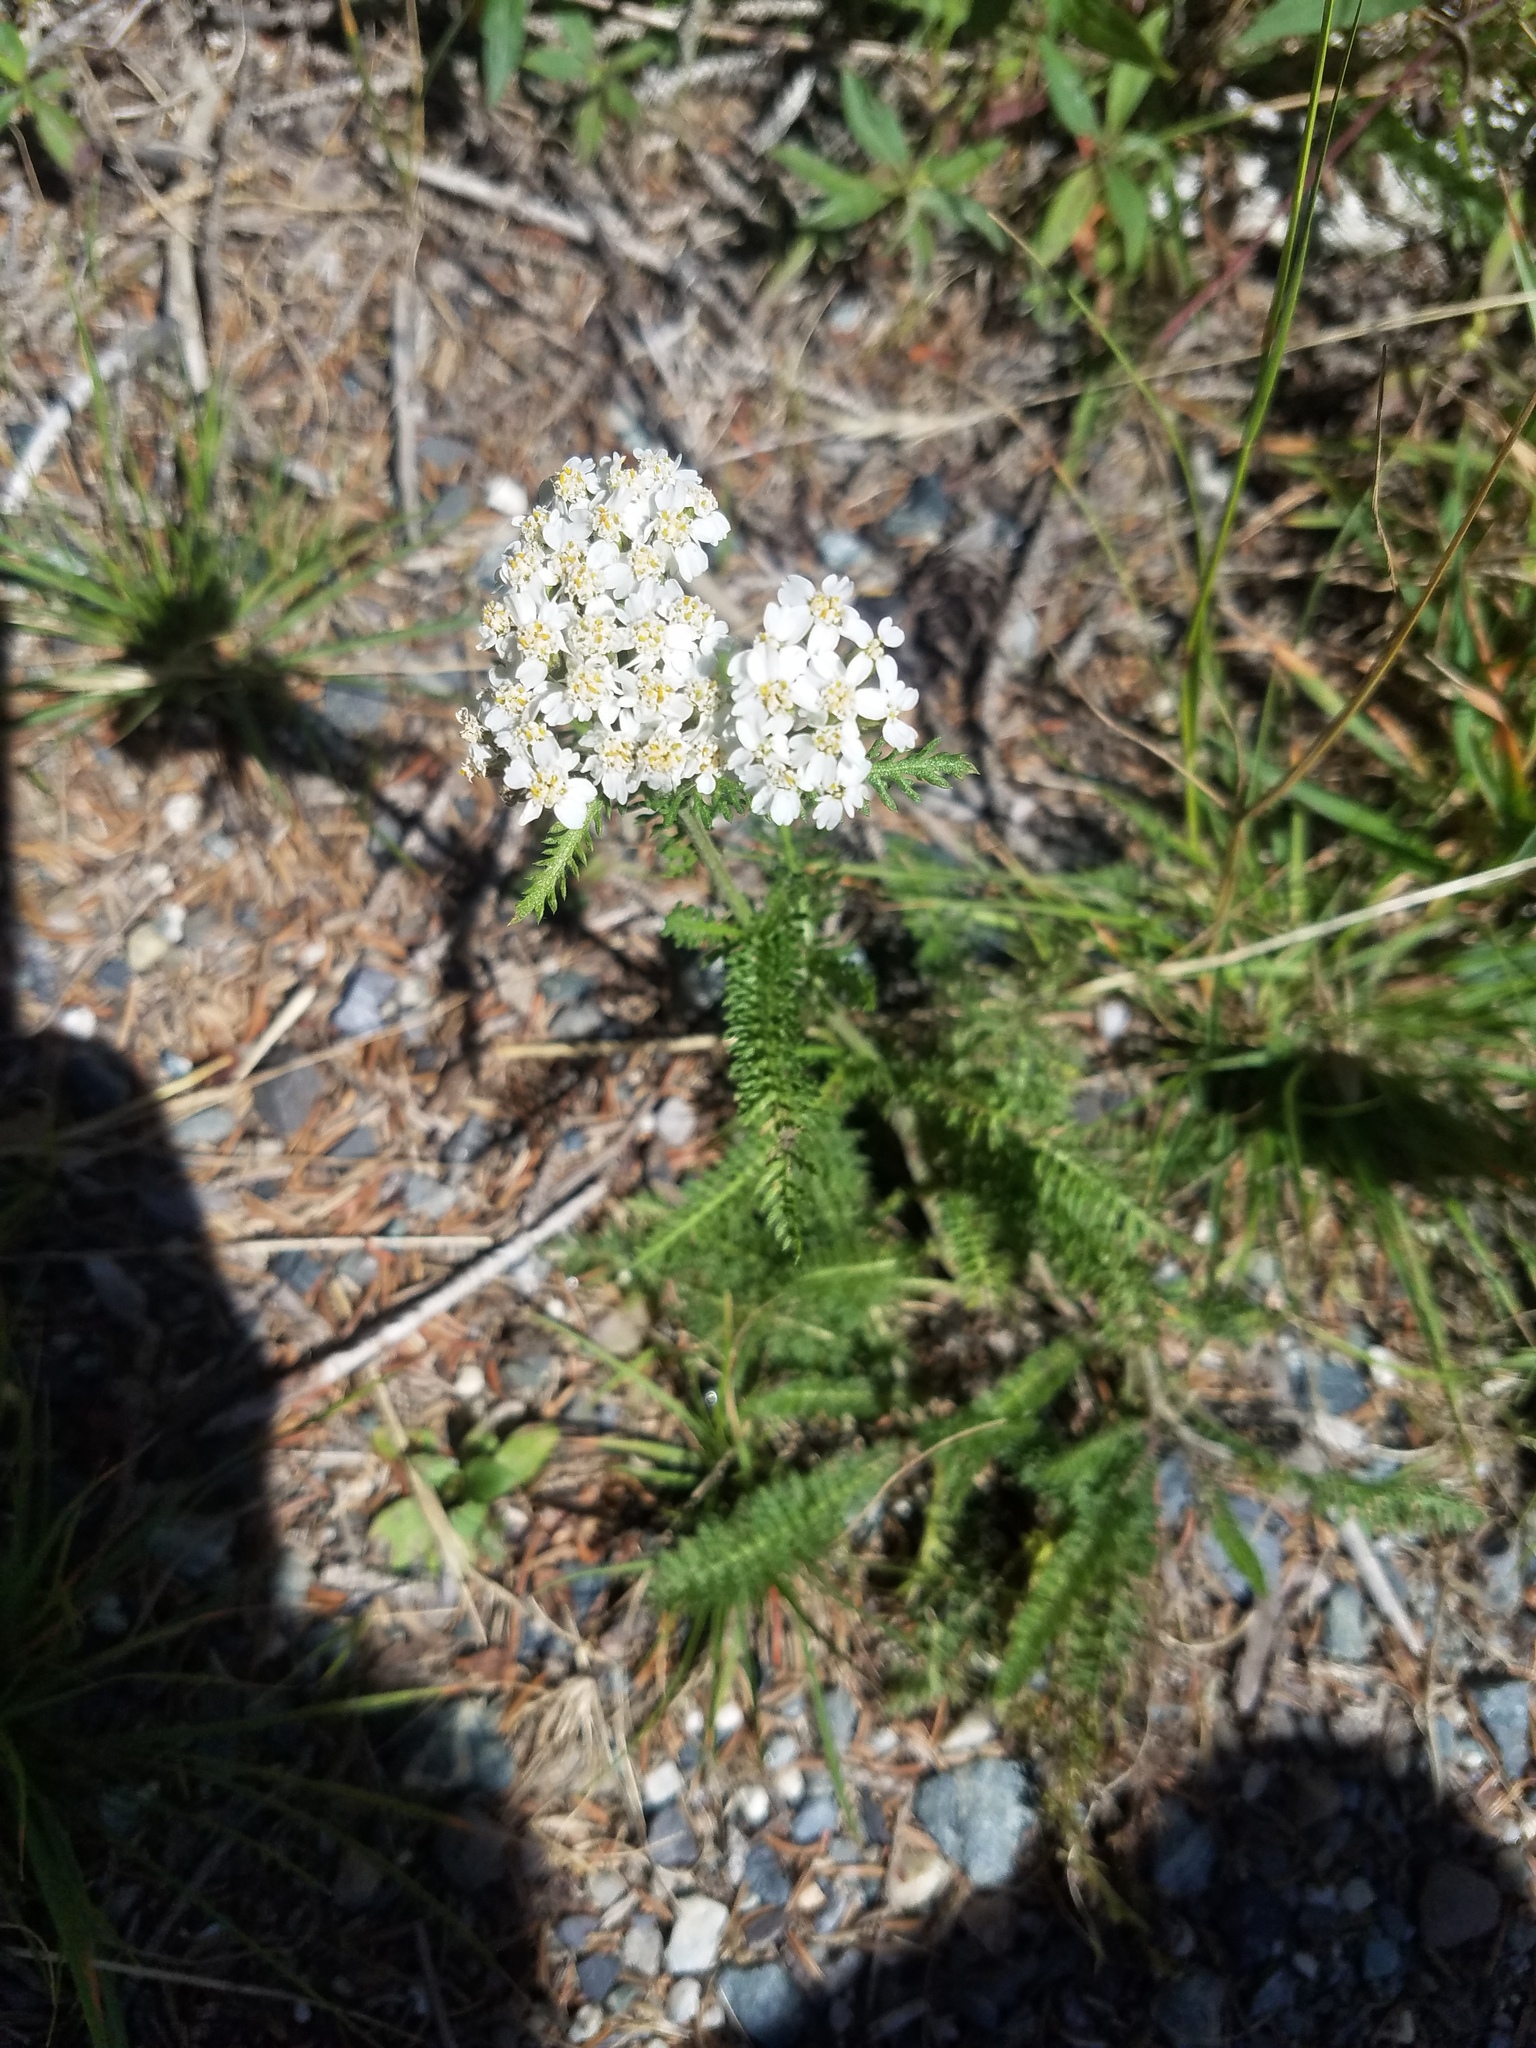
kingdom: Plantae
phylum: Tracheophyta
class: Magnoliopsida
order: Asterales
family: Asteraceae
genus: Achillea
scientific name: Achillea millefolium
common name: Yarrow
